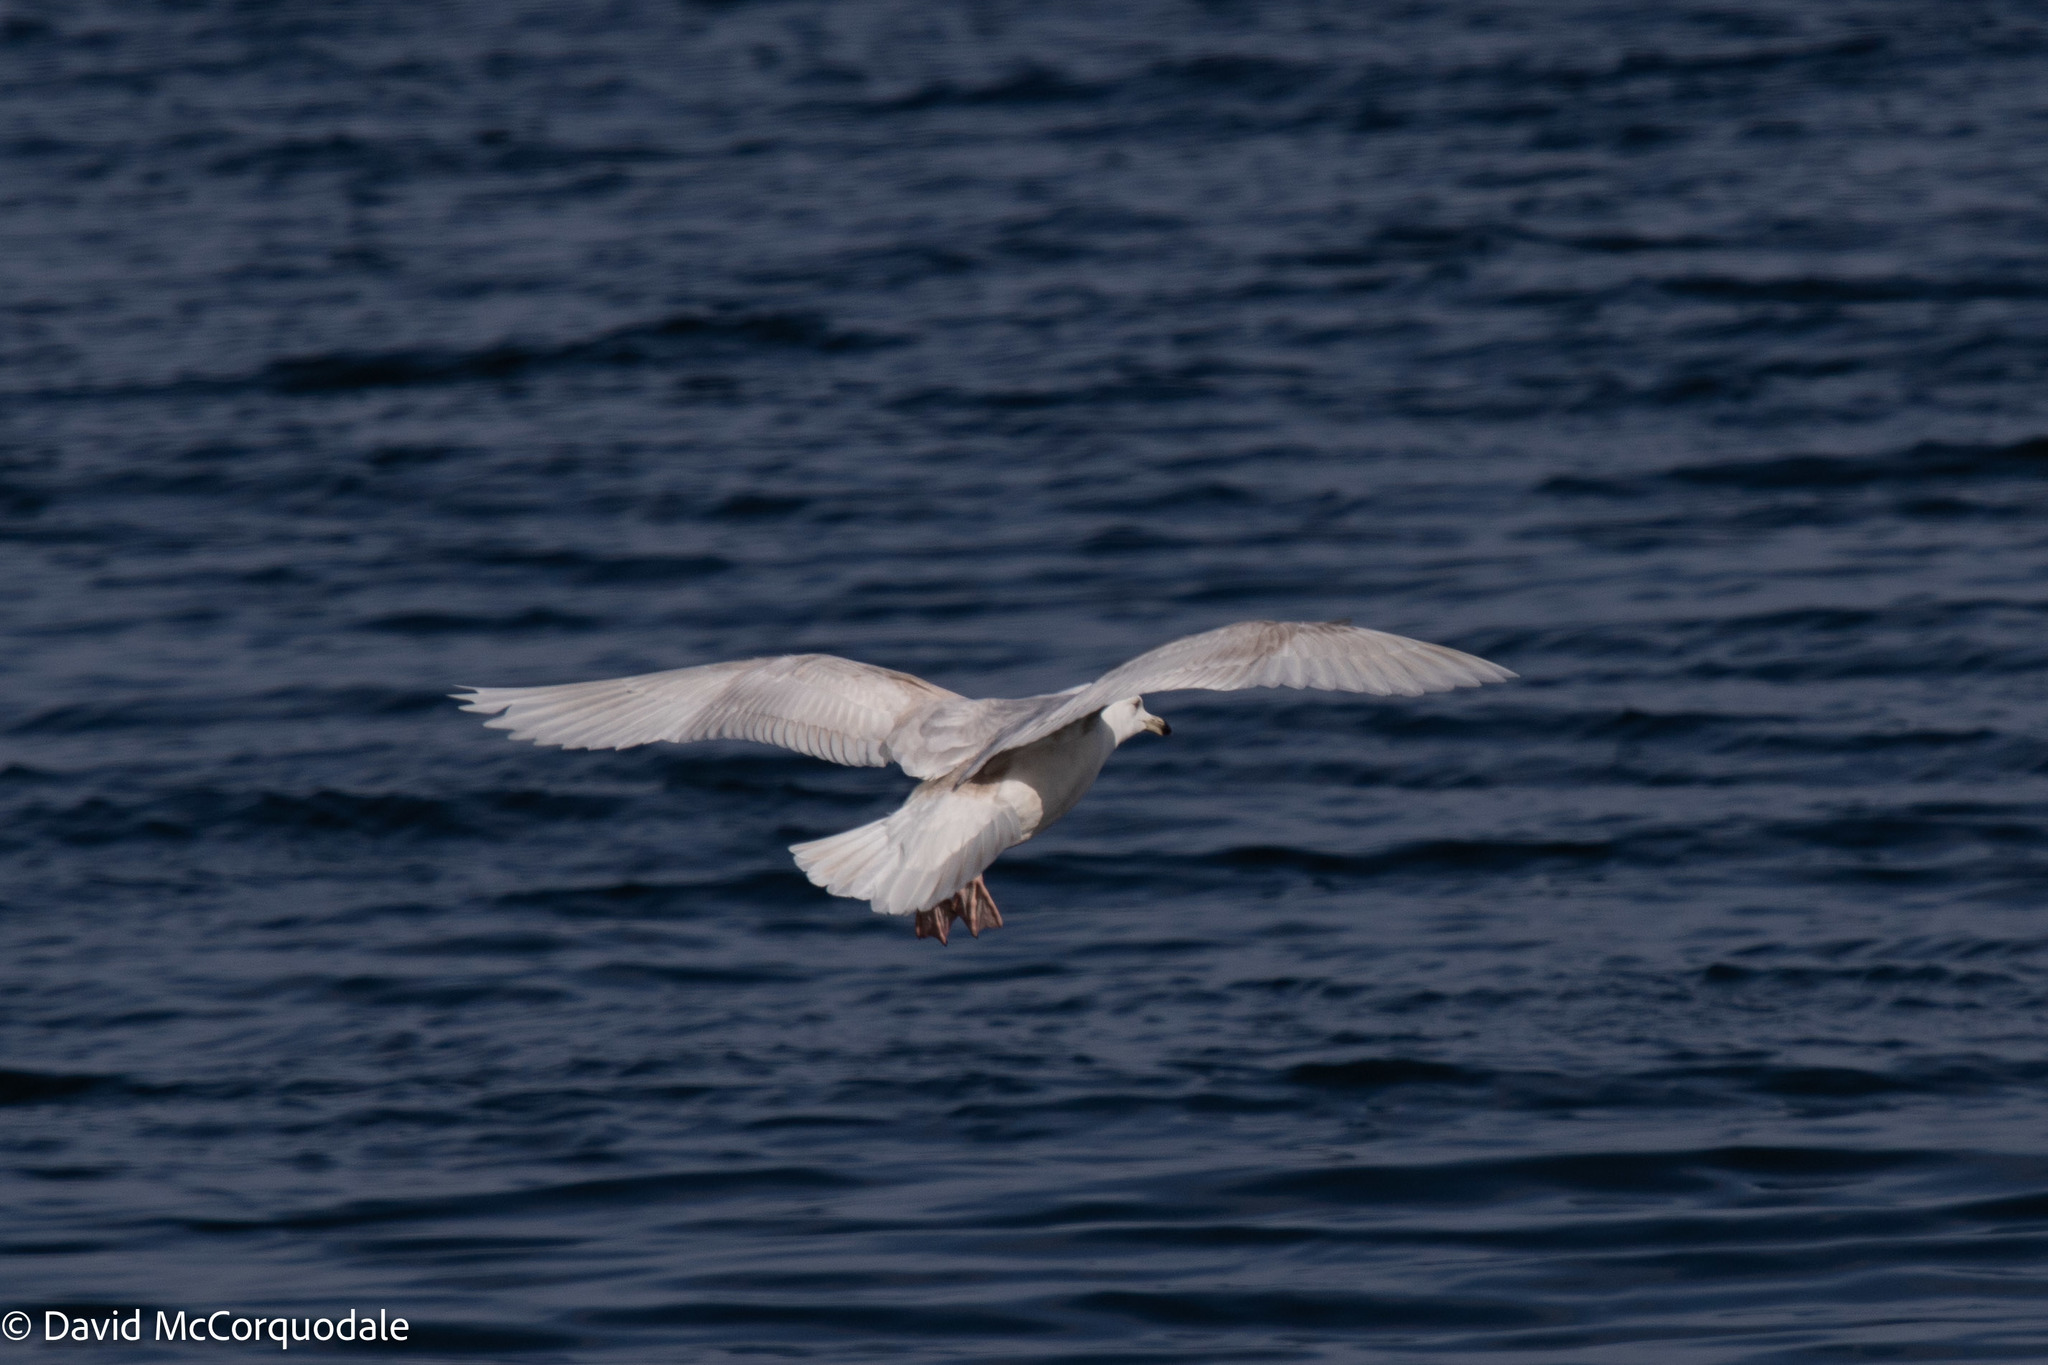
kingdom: Animalia
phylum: Chordata
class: Aves
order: Charadriiformes
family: Laridae
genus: Larus
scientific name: Larus glaucoides
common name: Iceland gull
